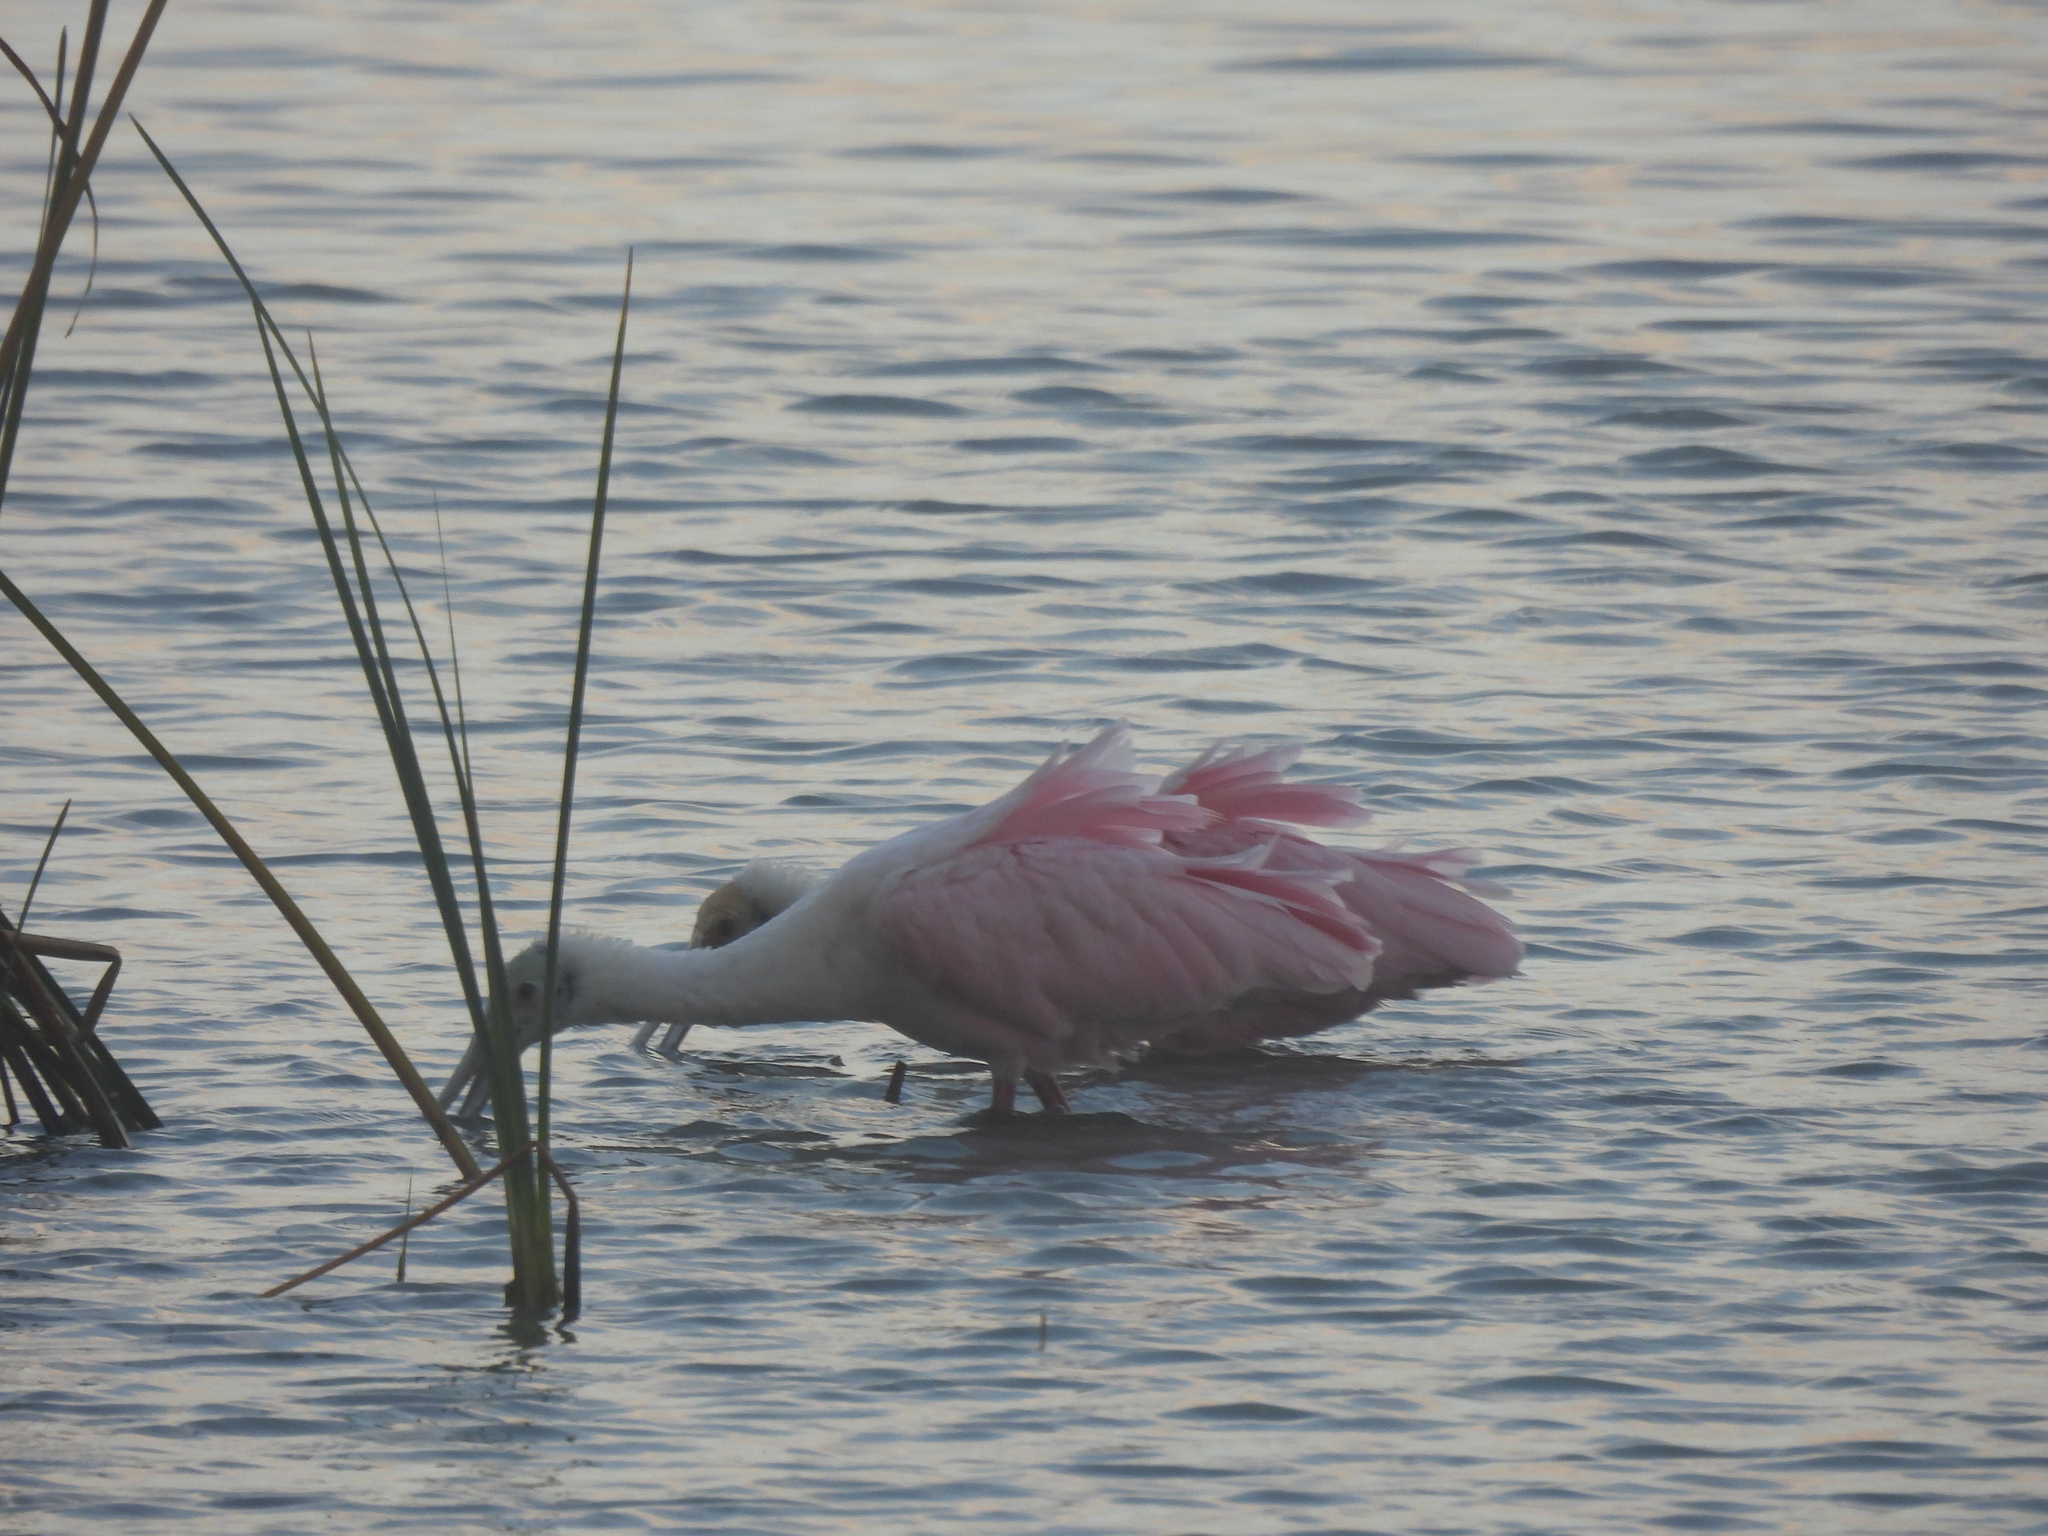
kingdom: Animalia
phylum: Chordata
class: Aves
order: Pelecaniformes
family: Threskiornithidae
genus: Platalea
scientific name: Platalea ajaja
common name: Roseate spoonbill
